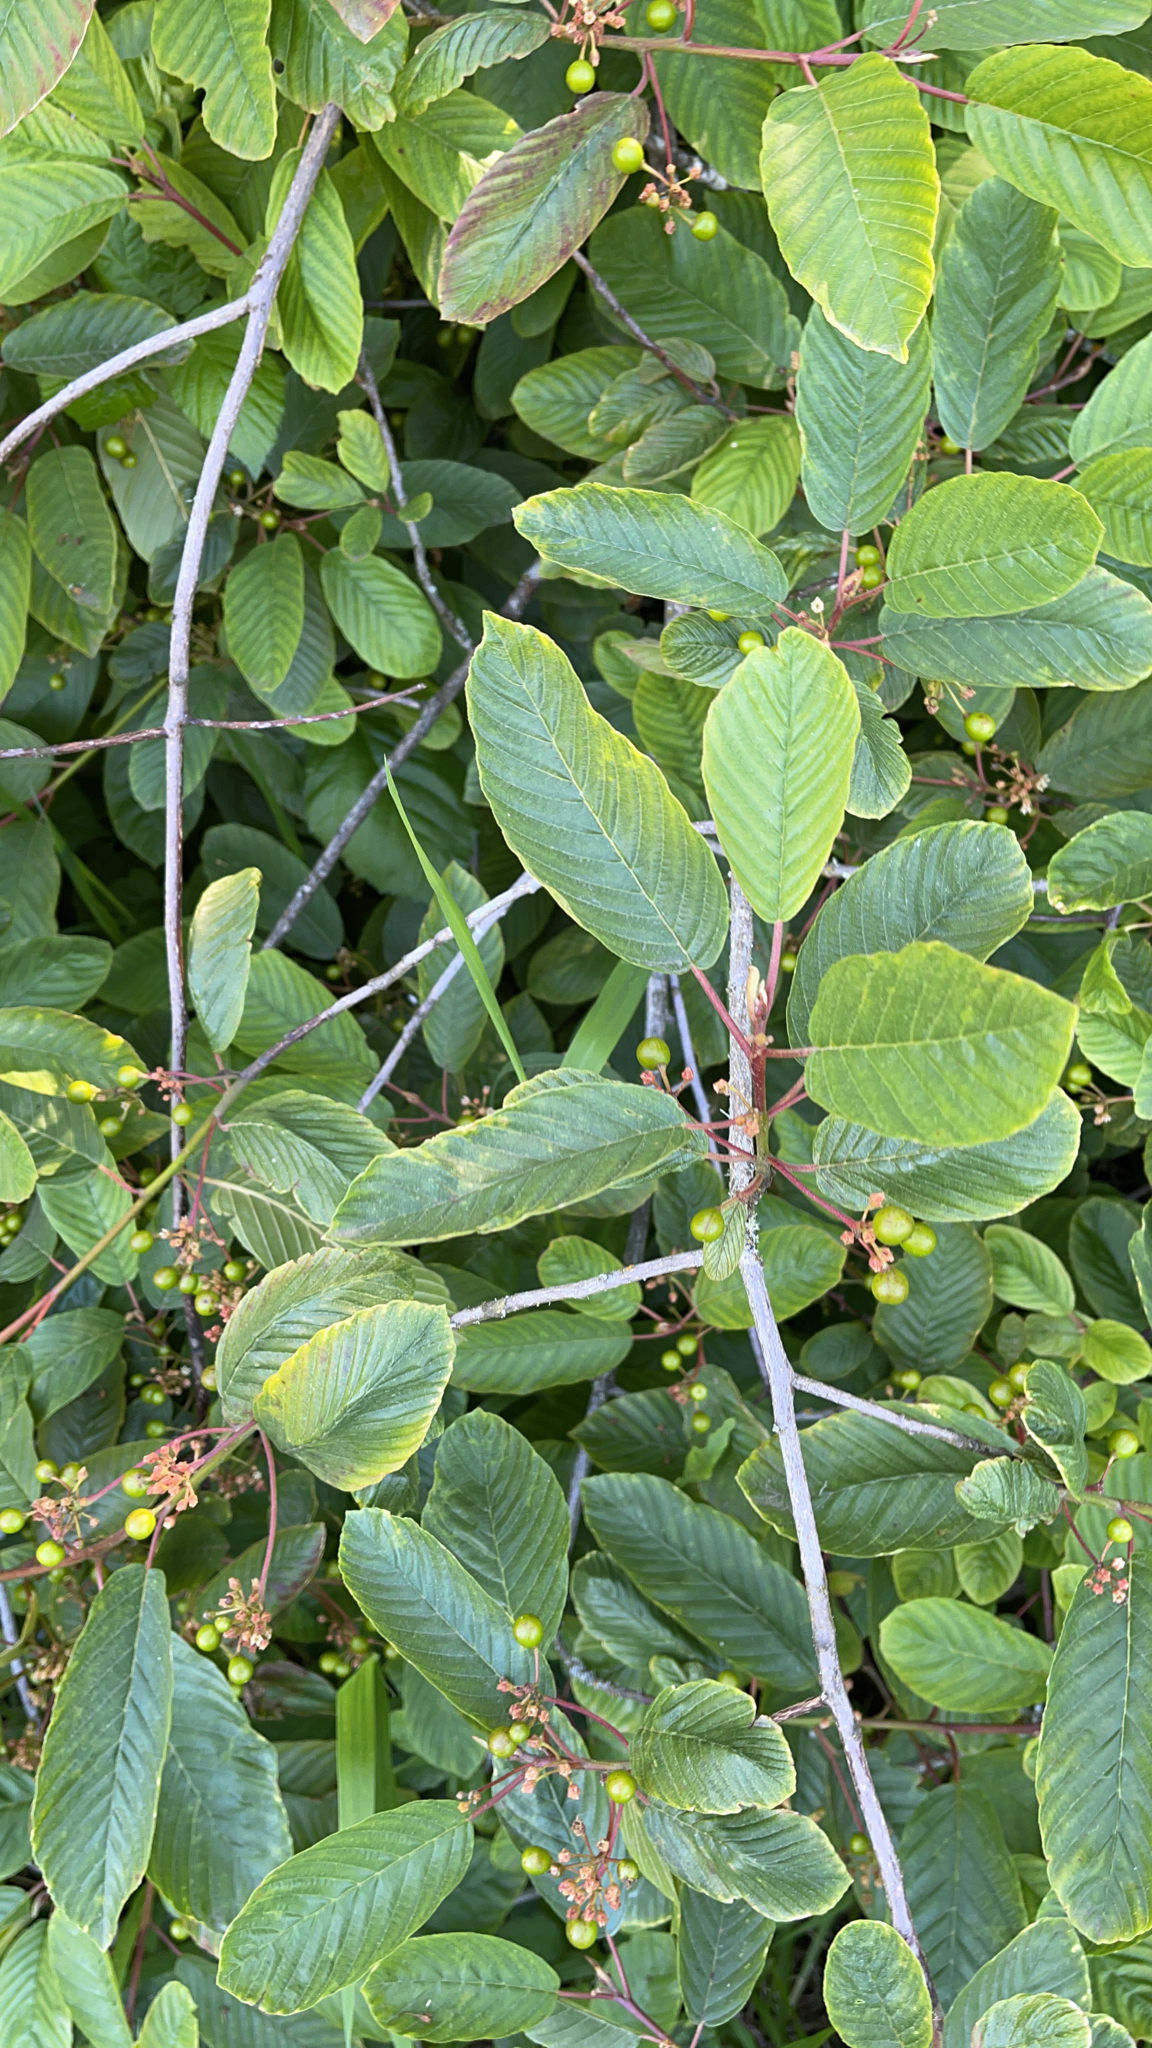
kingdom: Plantae
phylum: Tracheophyta
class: Magnoliopsida
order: Rosales
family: Rhamnaceae
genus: Frangula
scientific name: Frangula purshiana
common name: Cascara buckthorn
